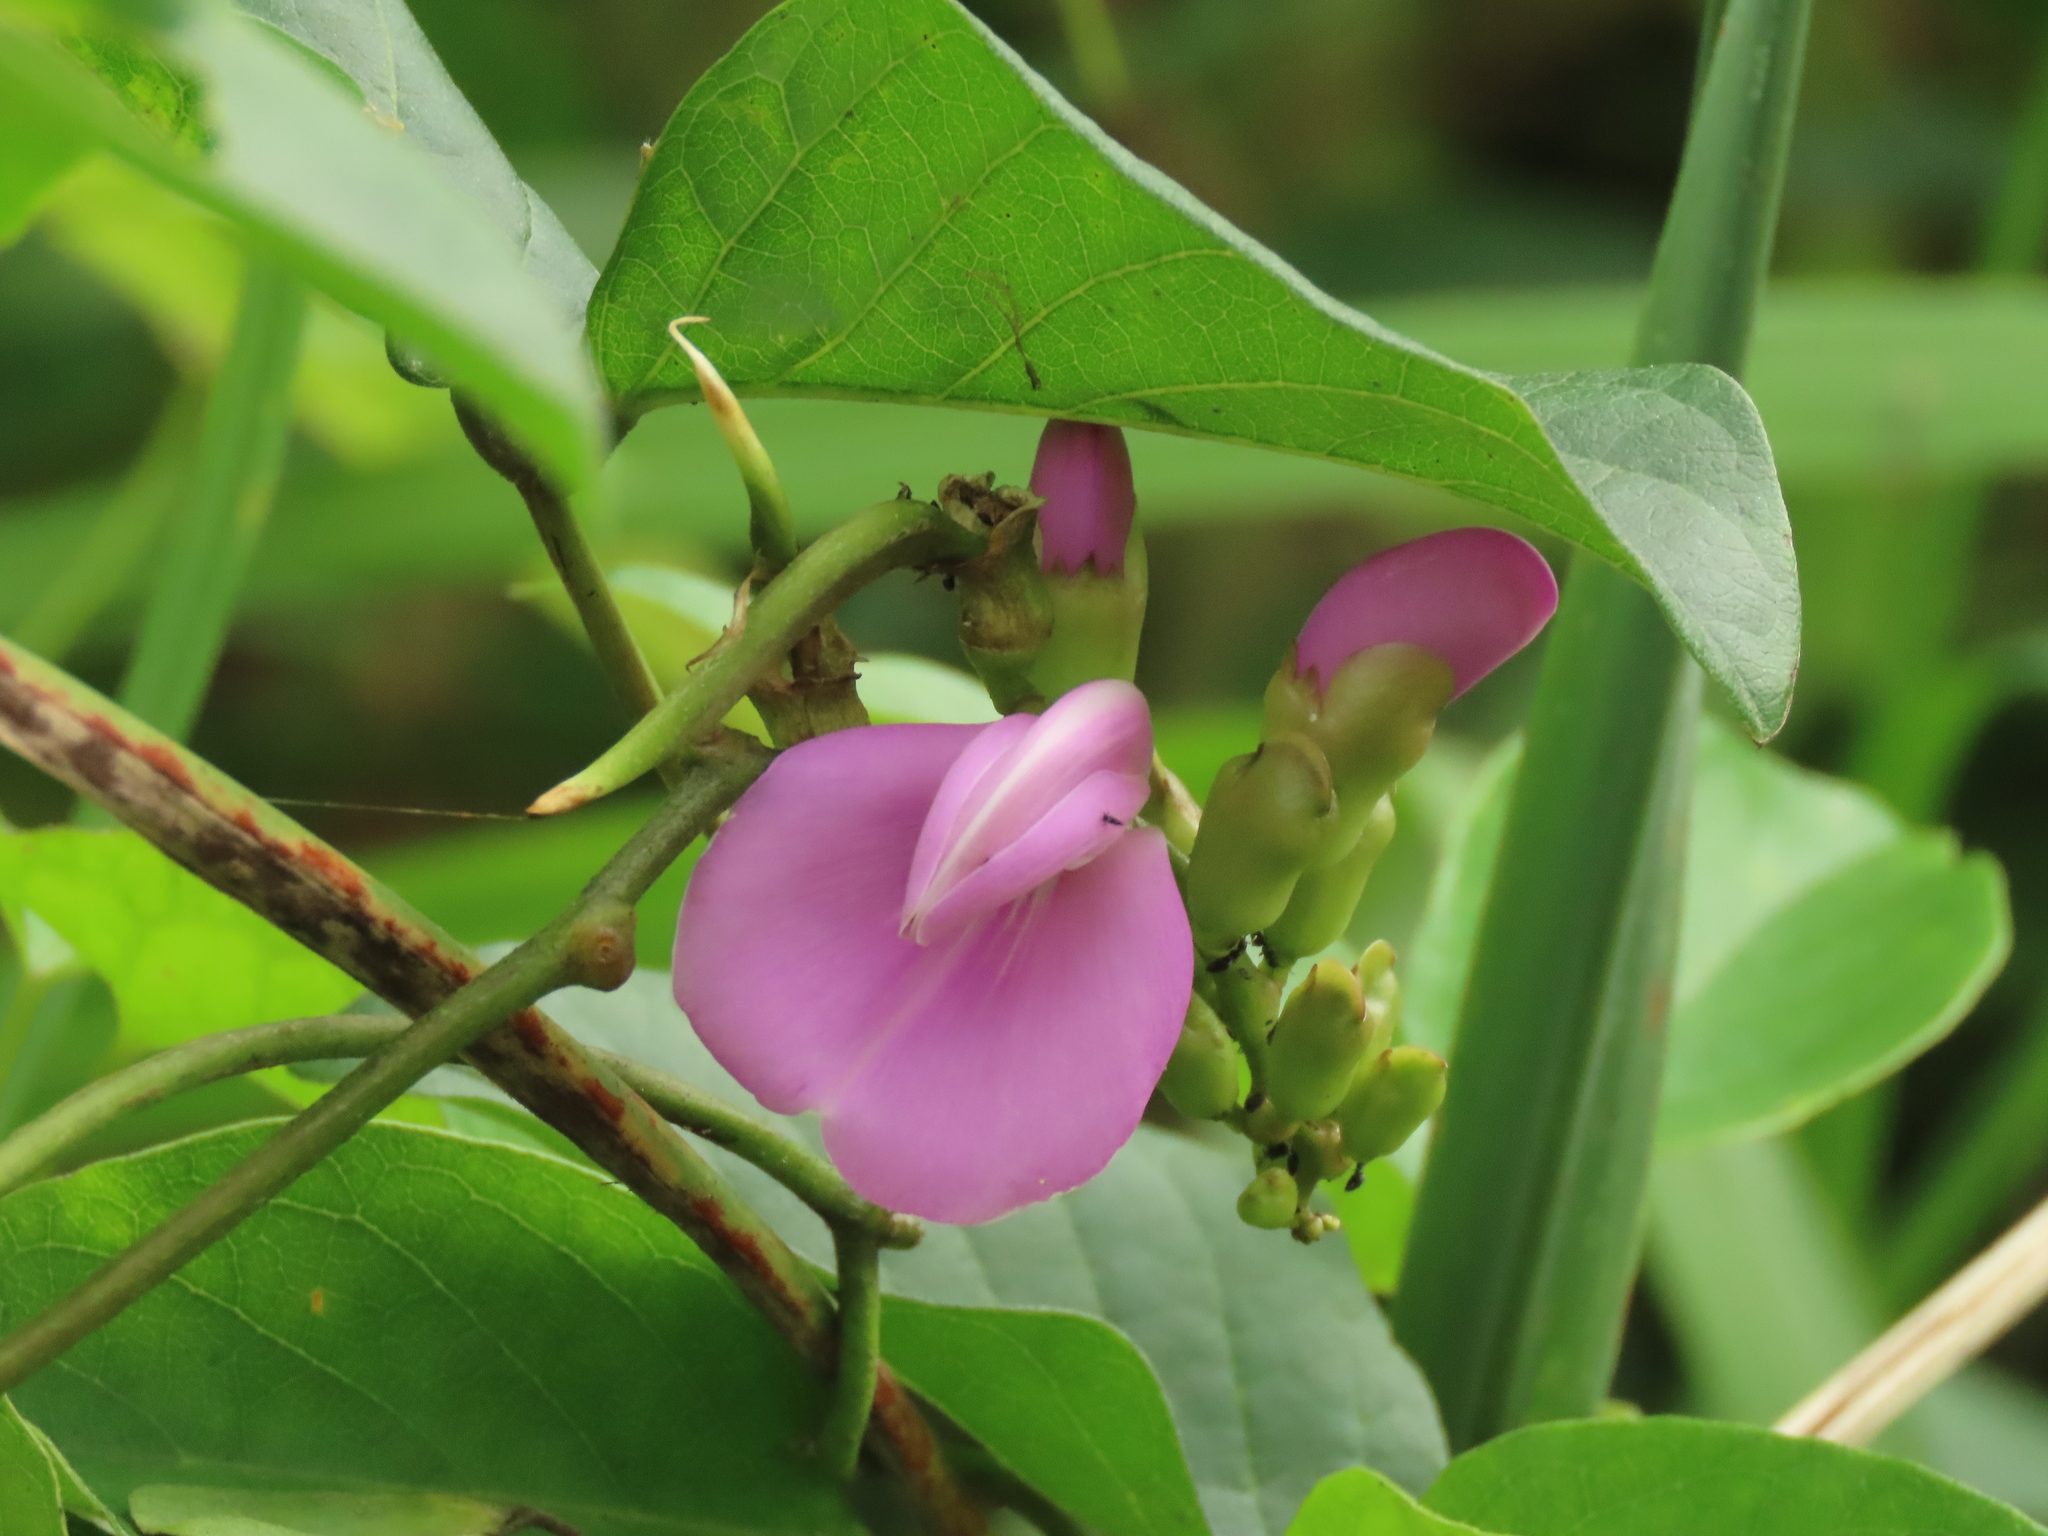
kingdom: Plantae
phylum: Tracheophyta
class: Magnoliopsida
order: Fabales
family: Fabaceae
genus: Canavalia
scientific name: Canavalia cathartica
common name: Maunaloa
